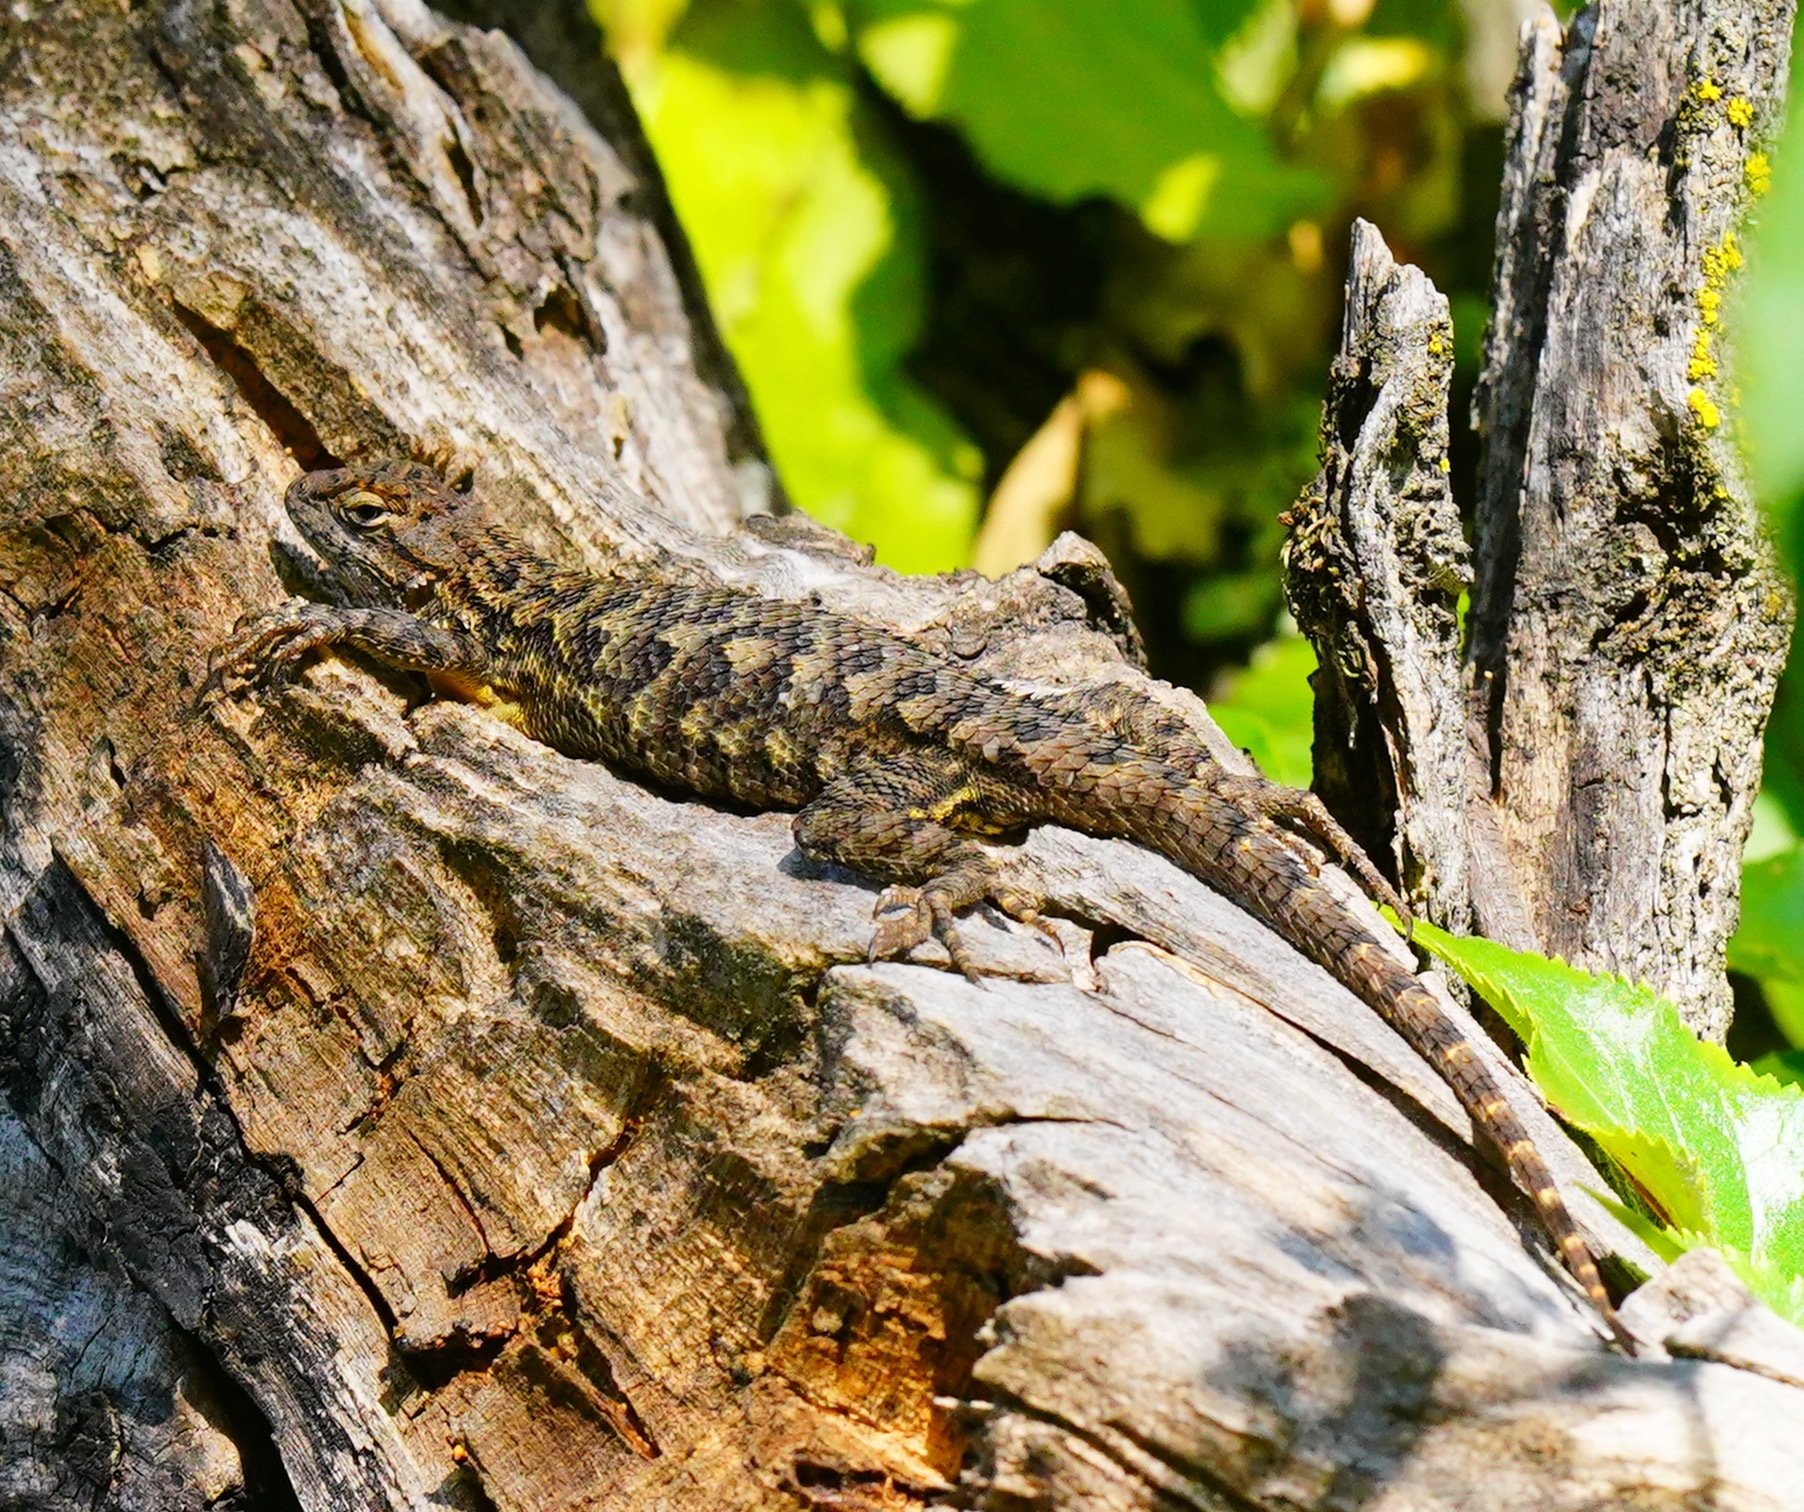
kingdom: Animalia
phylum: Chordata
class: Squamata
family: Phrynosomatidae
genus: Sceloporus
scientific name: Sceloporus occidentalis
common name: Western fence lizard
